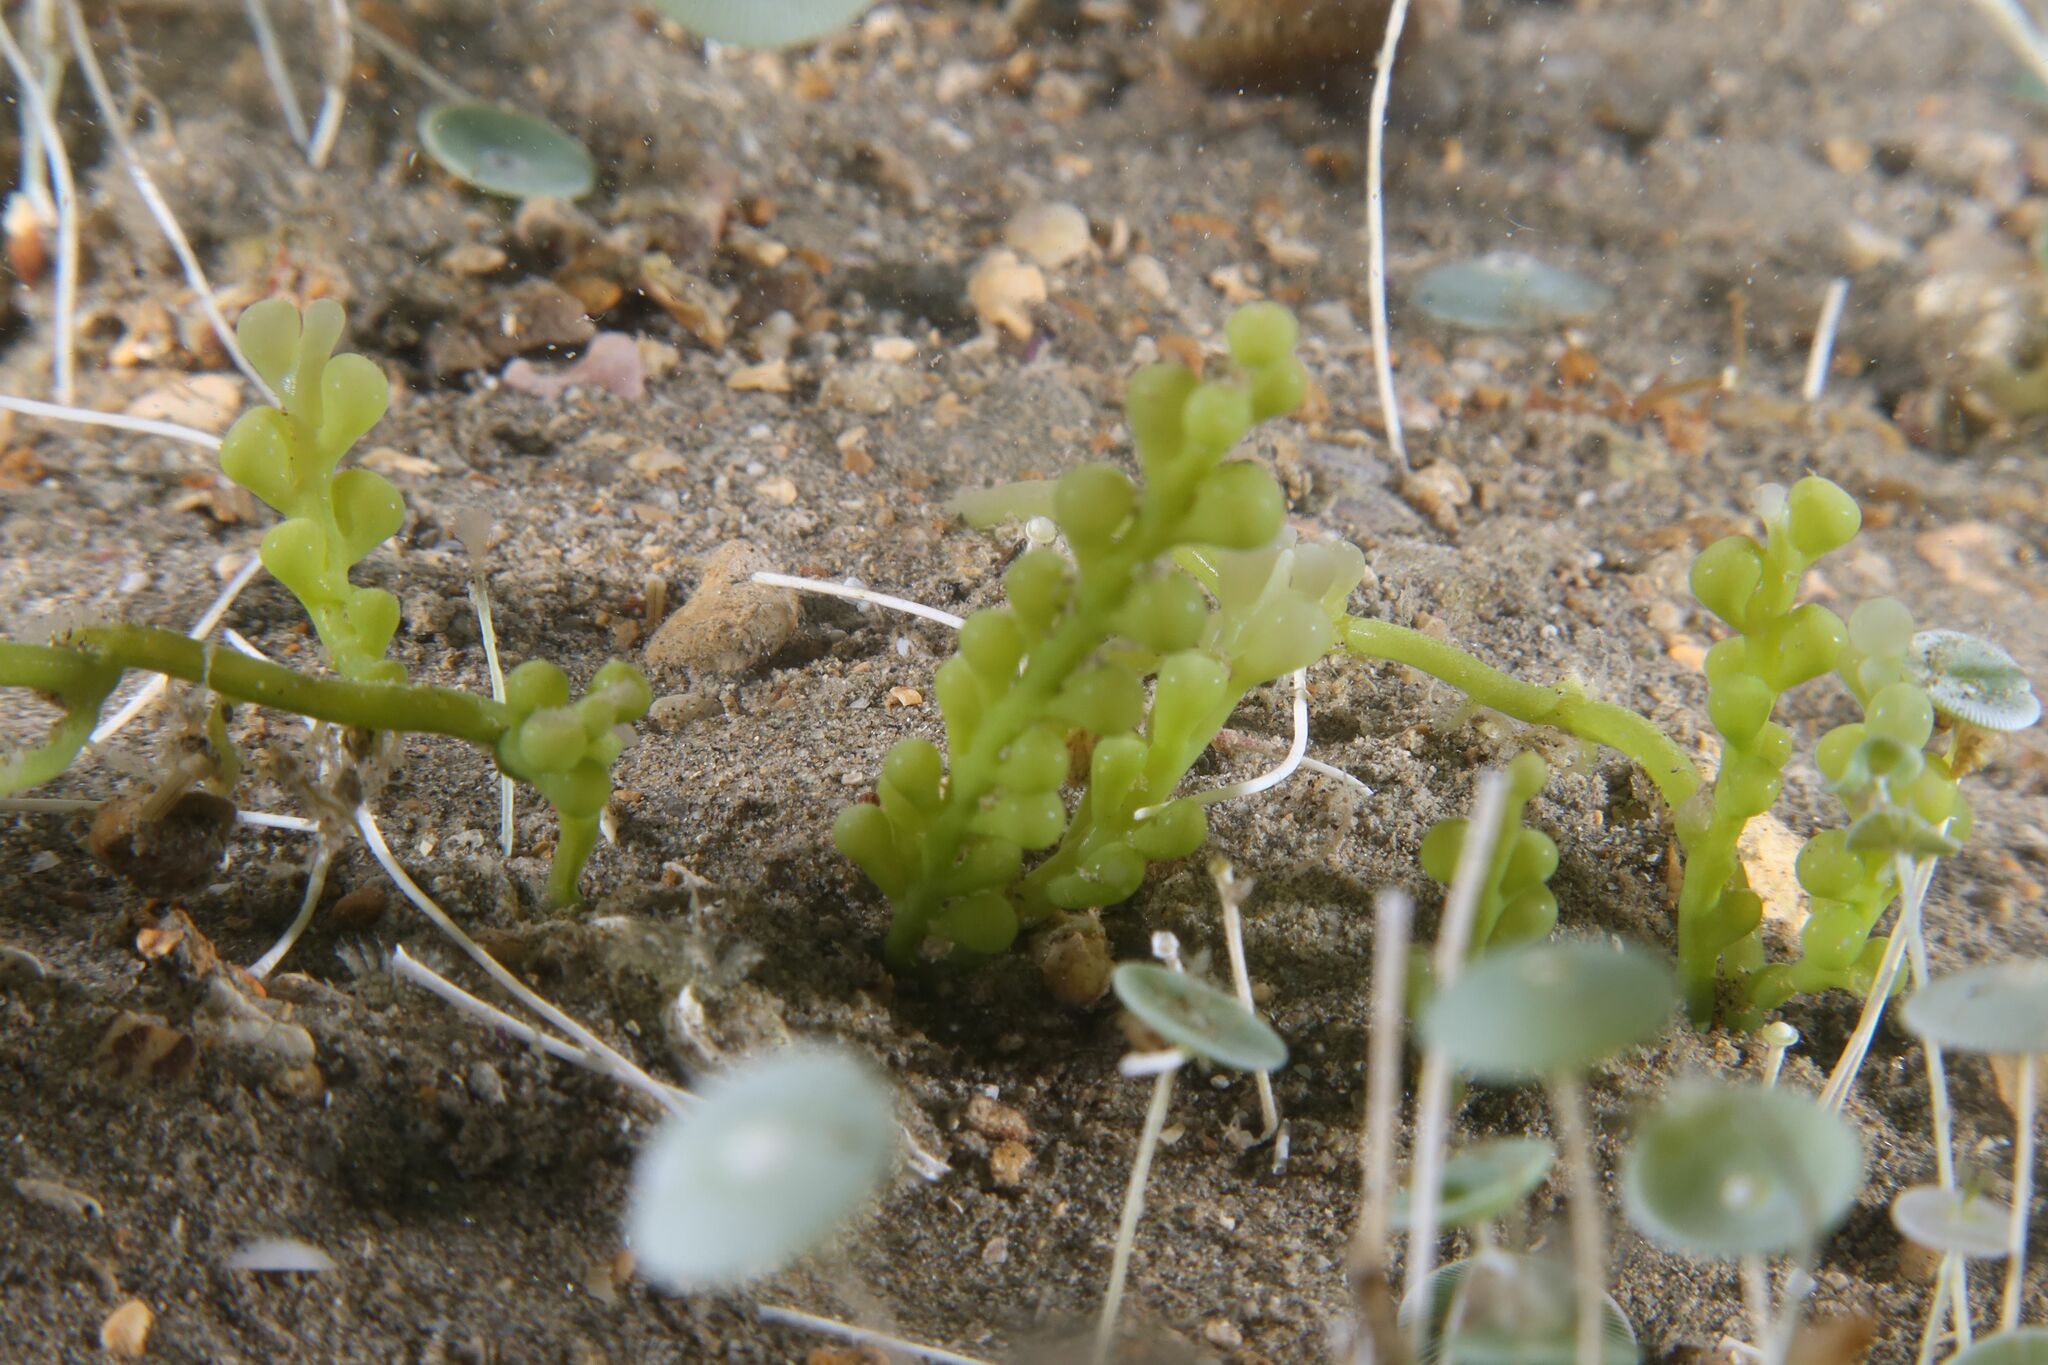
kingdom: Plantae
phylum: Chlorophyta
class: Ulvophyceae
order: Bryopsidales
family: Caulerpaceae
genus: Caulerpa
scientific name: Caulerpa cylindracea
